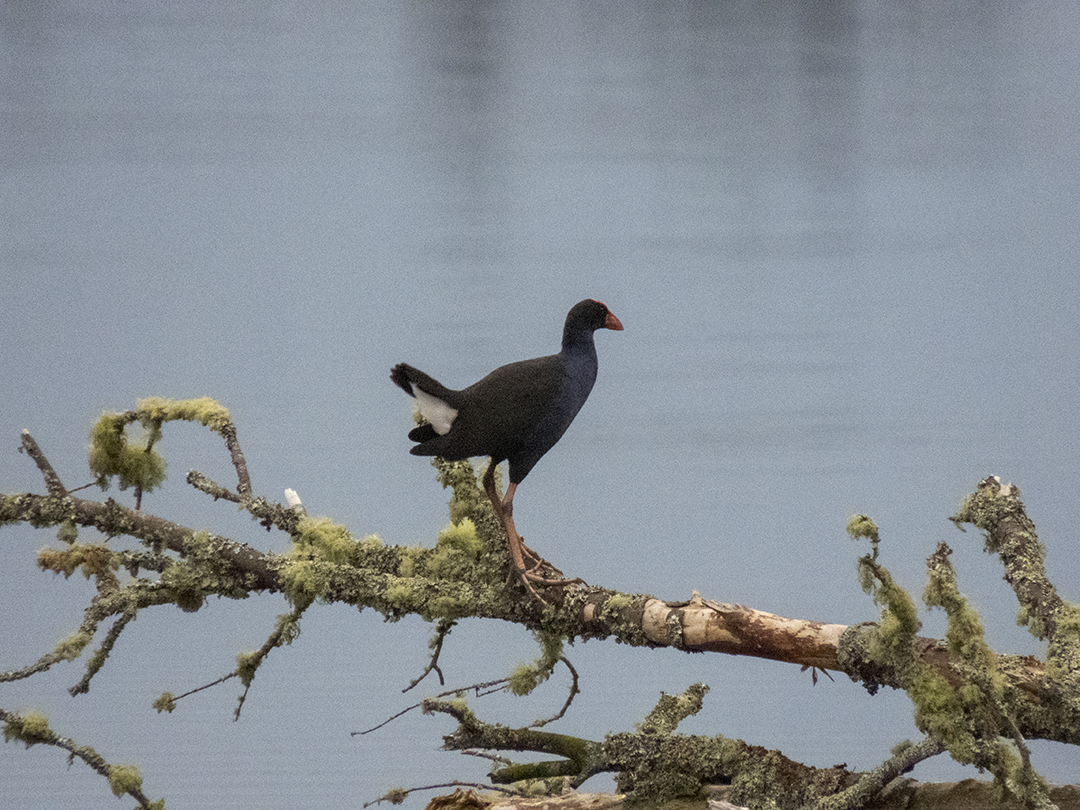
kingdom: Animalia
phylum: Chordata
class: Aves
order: Gruiformes
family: Rallidae
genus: Porphyrio
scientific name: Porphyrio melanotus
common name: Australasian swamphen
